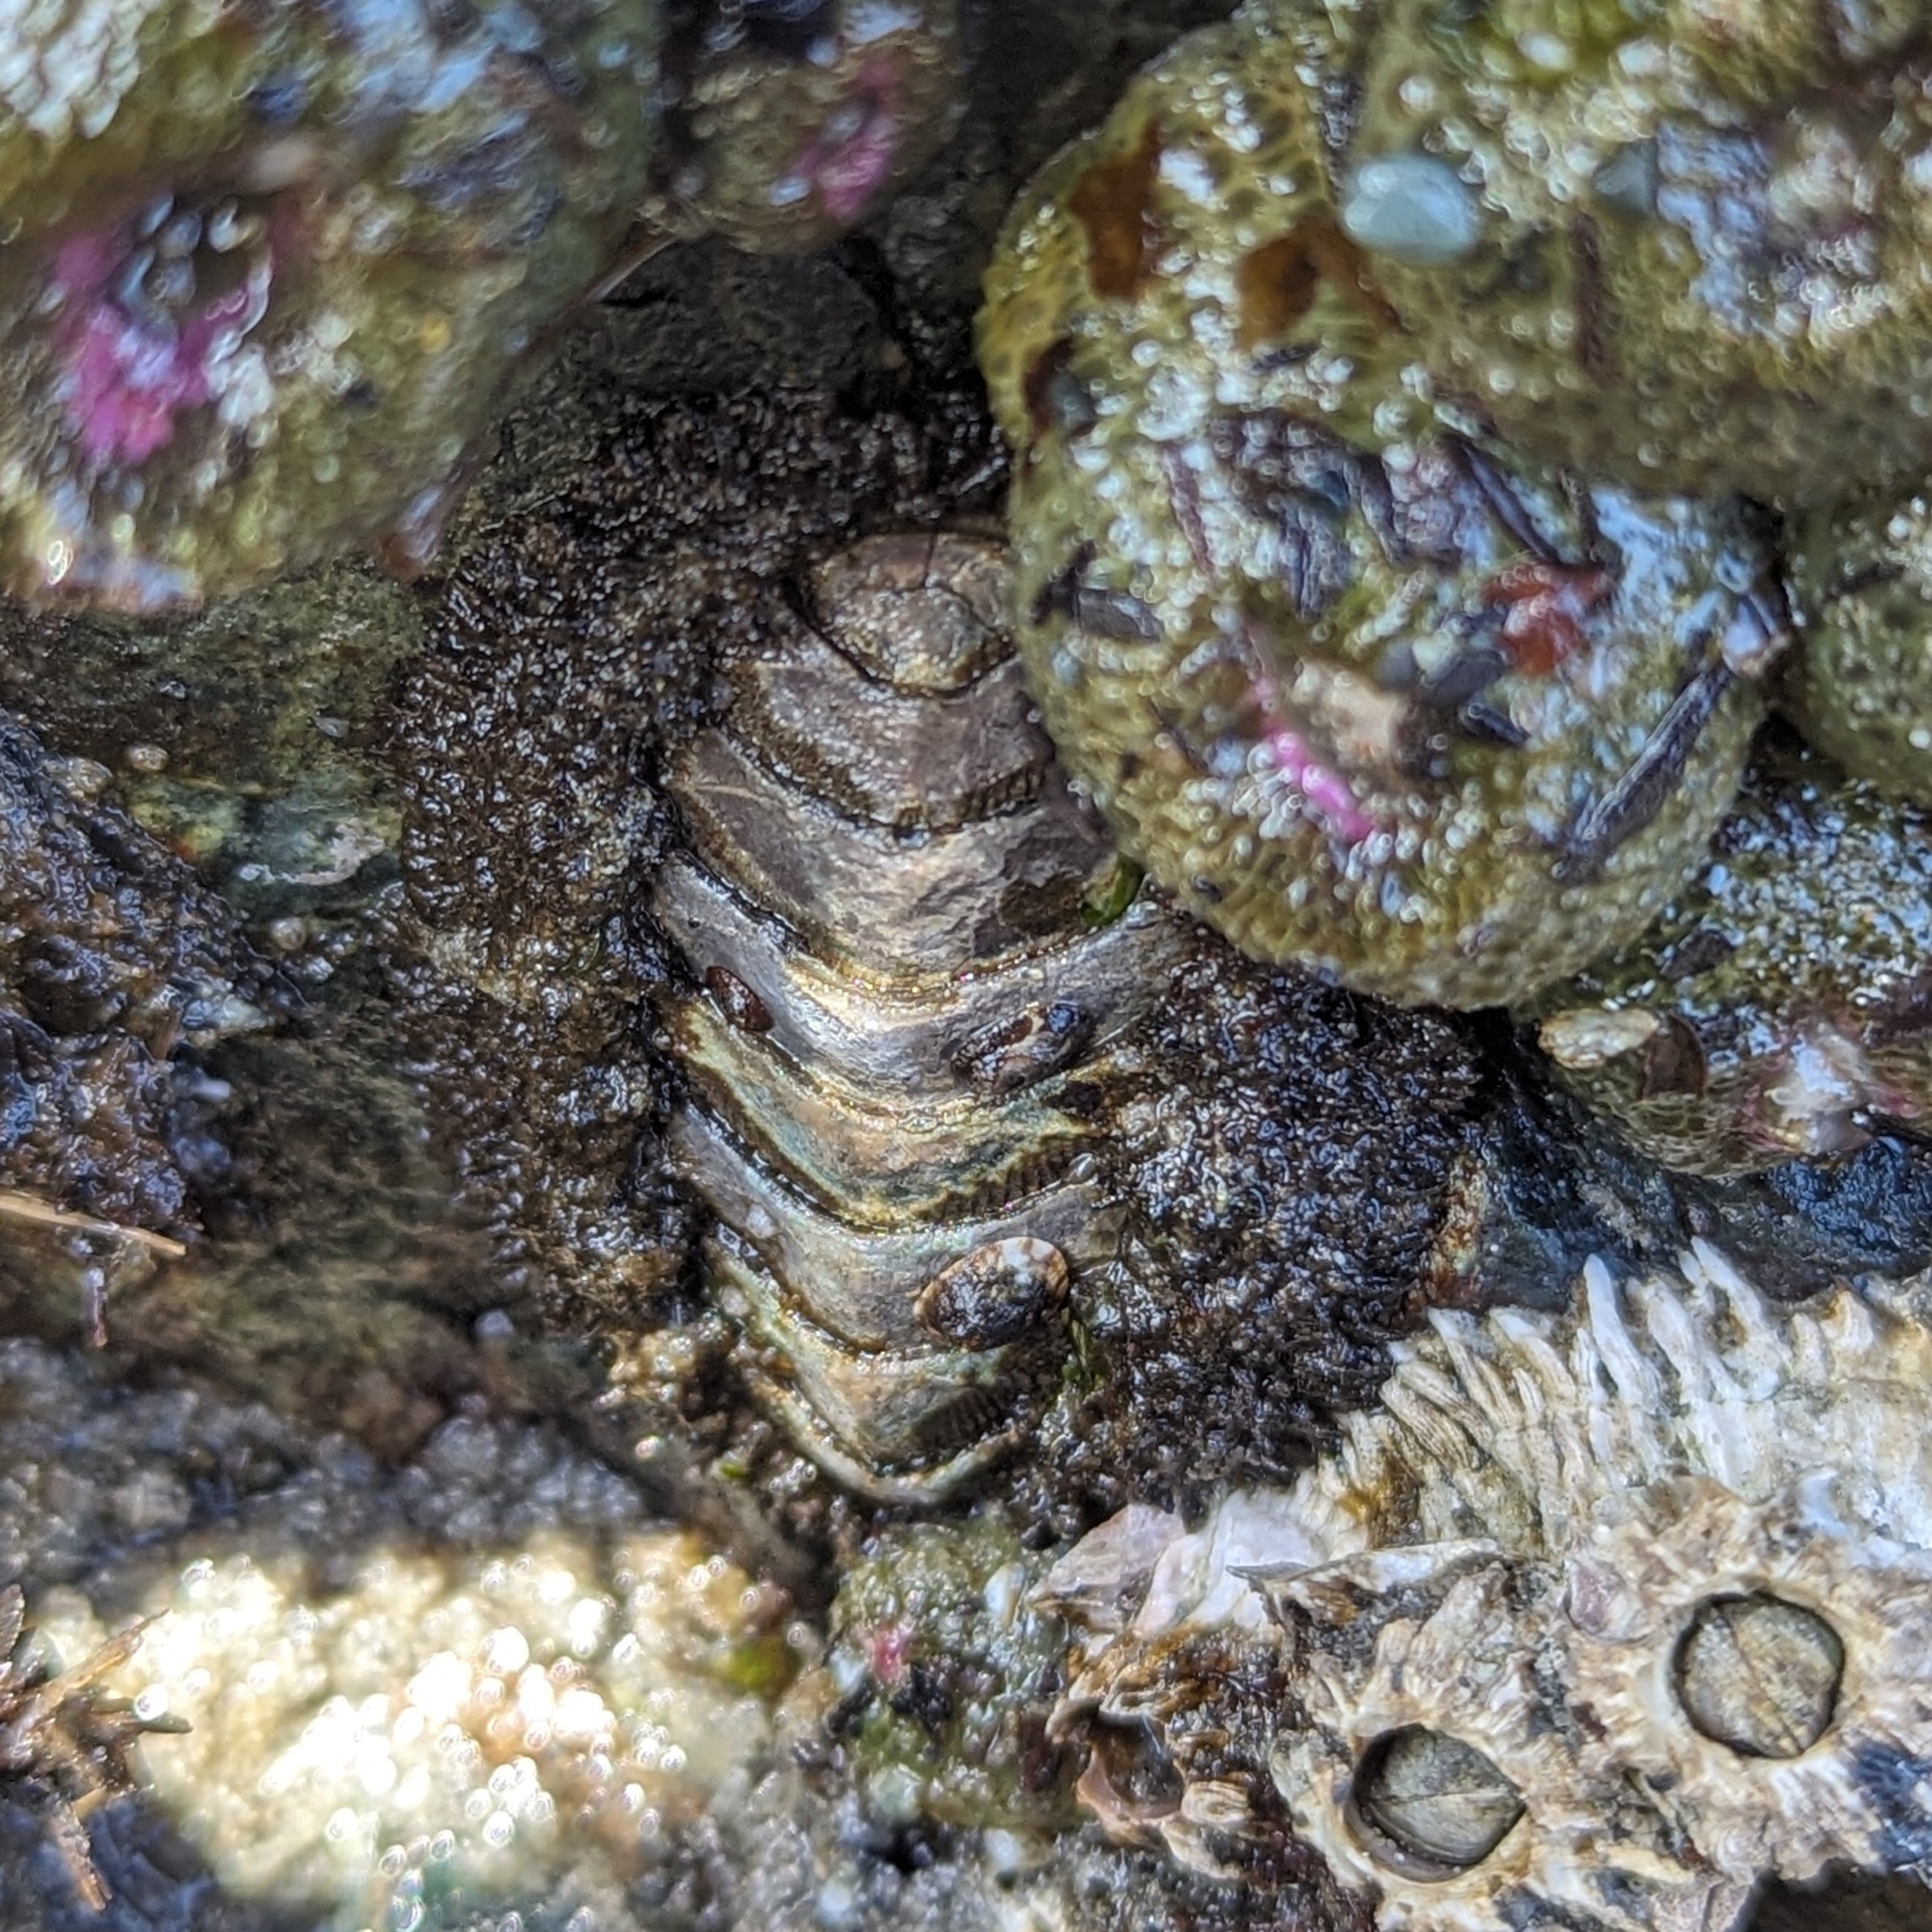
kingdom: Animalia
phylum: Mollusca
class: Polyplacophora
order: Chitonida
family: Mopaliidae
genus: Mopalia
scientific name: Mopalia muscosa
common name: Mossy chiton
